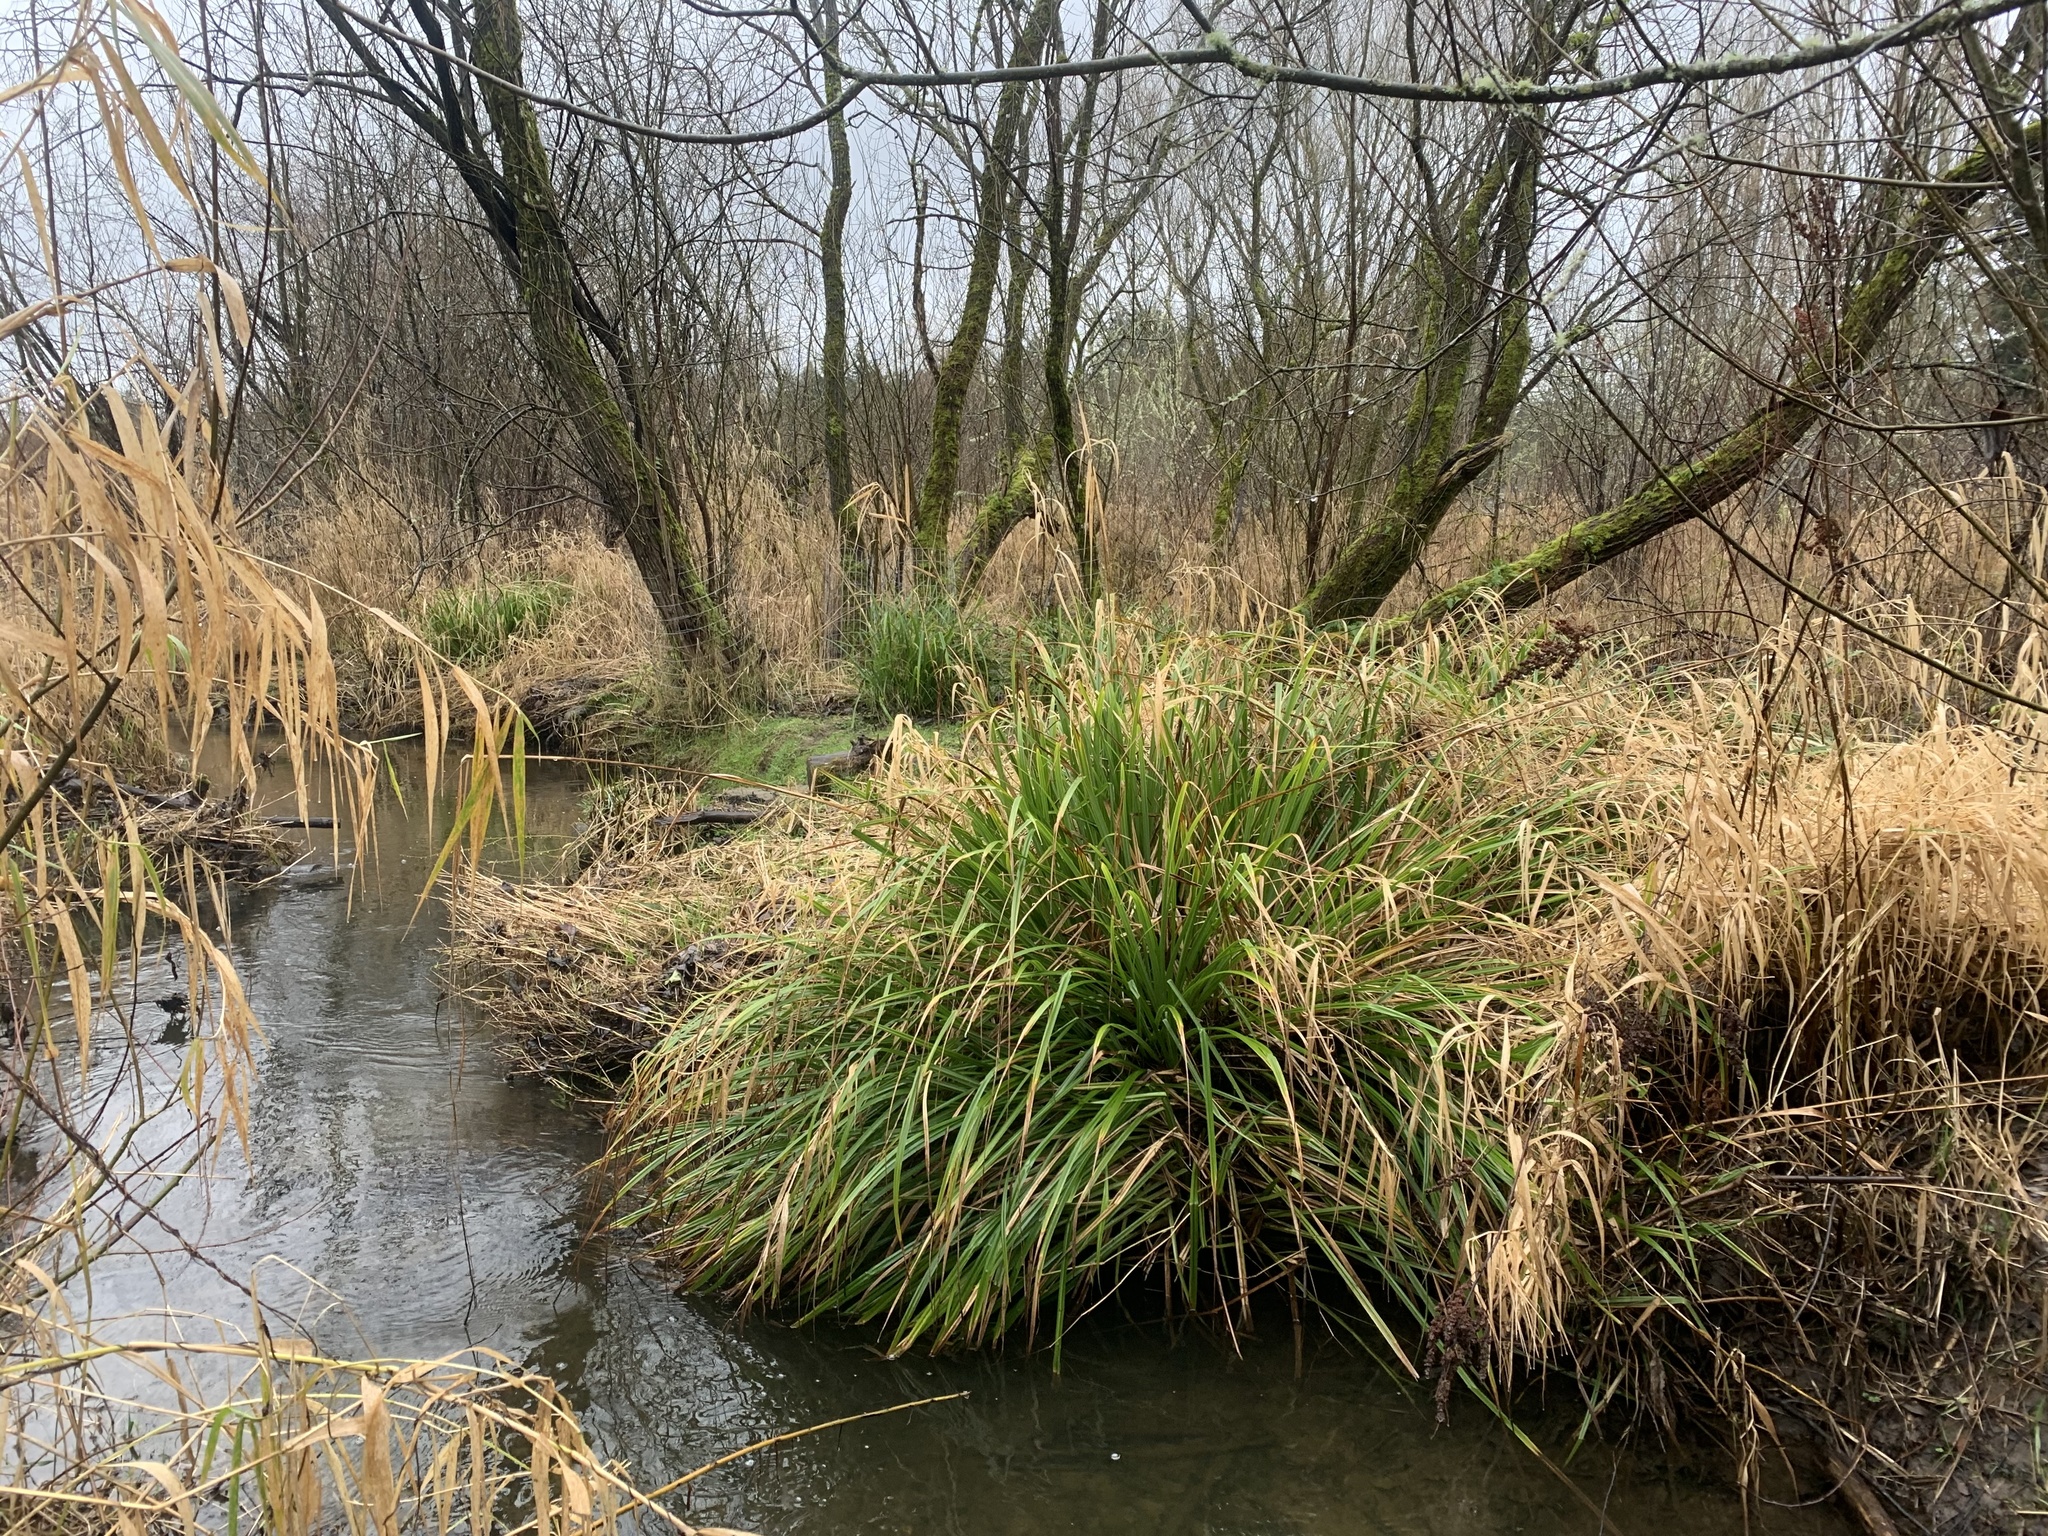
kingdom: Plantae
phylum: Tracheophyta
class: Liliopsida
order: Poales
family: Cyperaceae
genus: Carex
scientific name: Carex pendula
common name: Pendulous sedge
